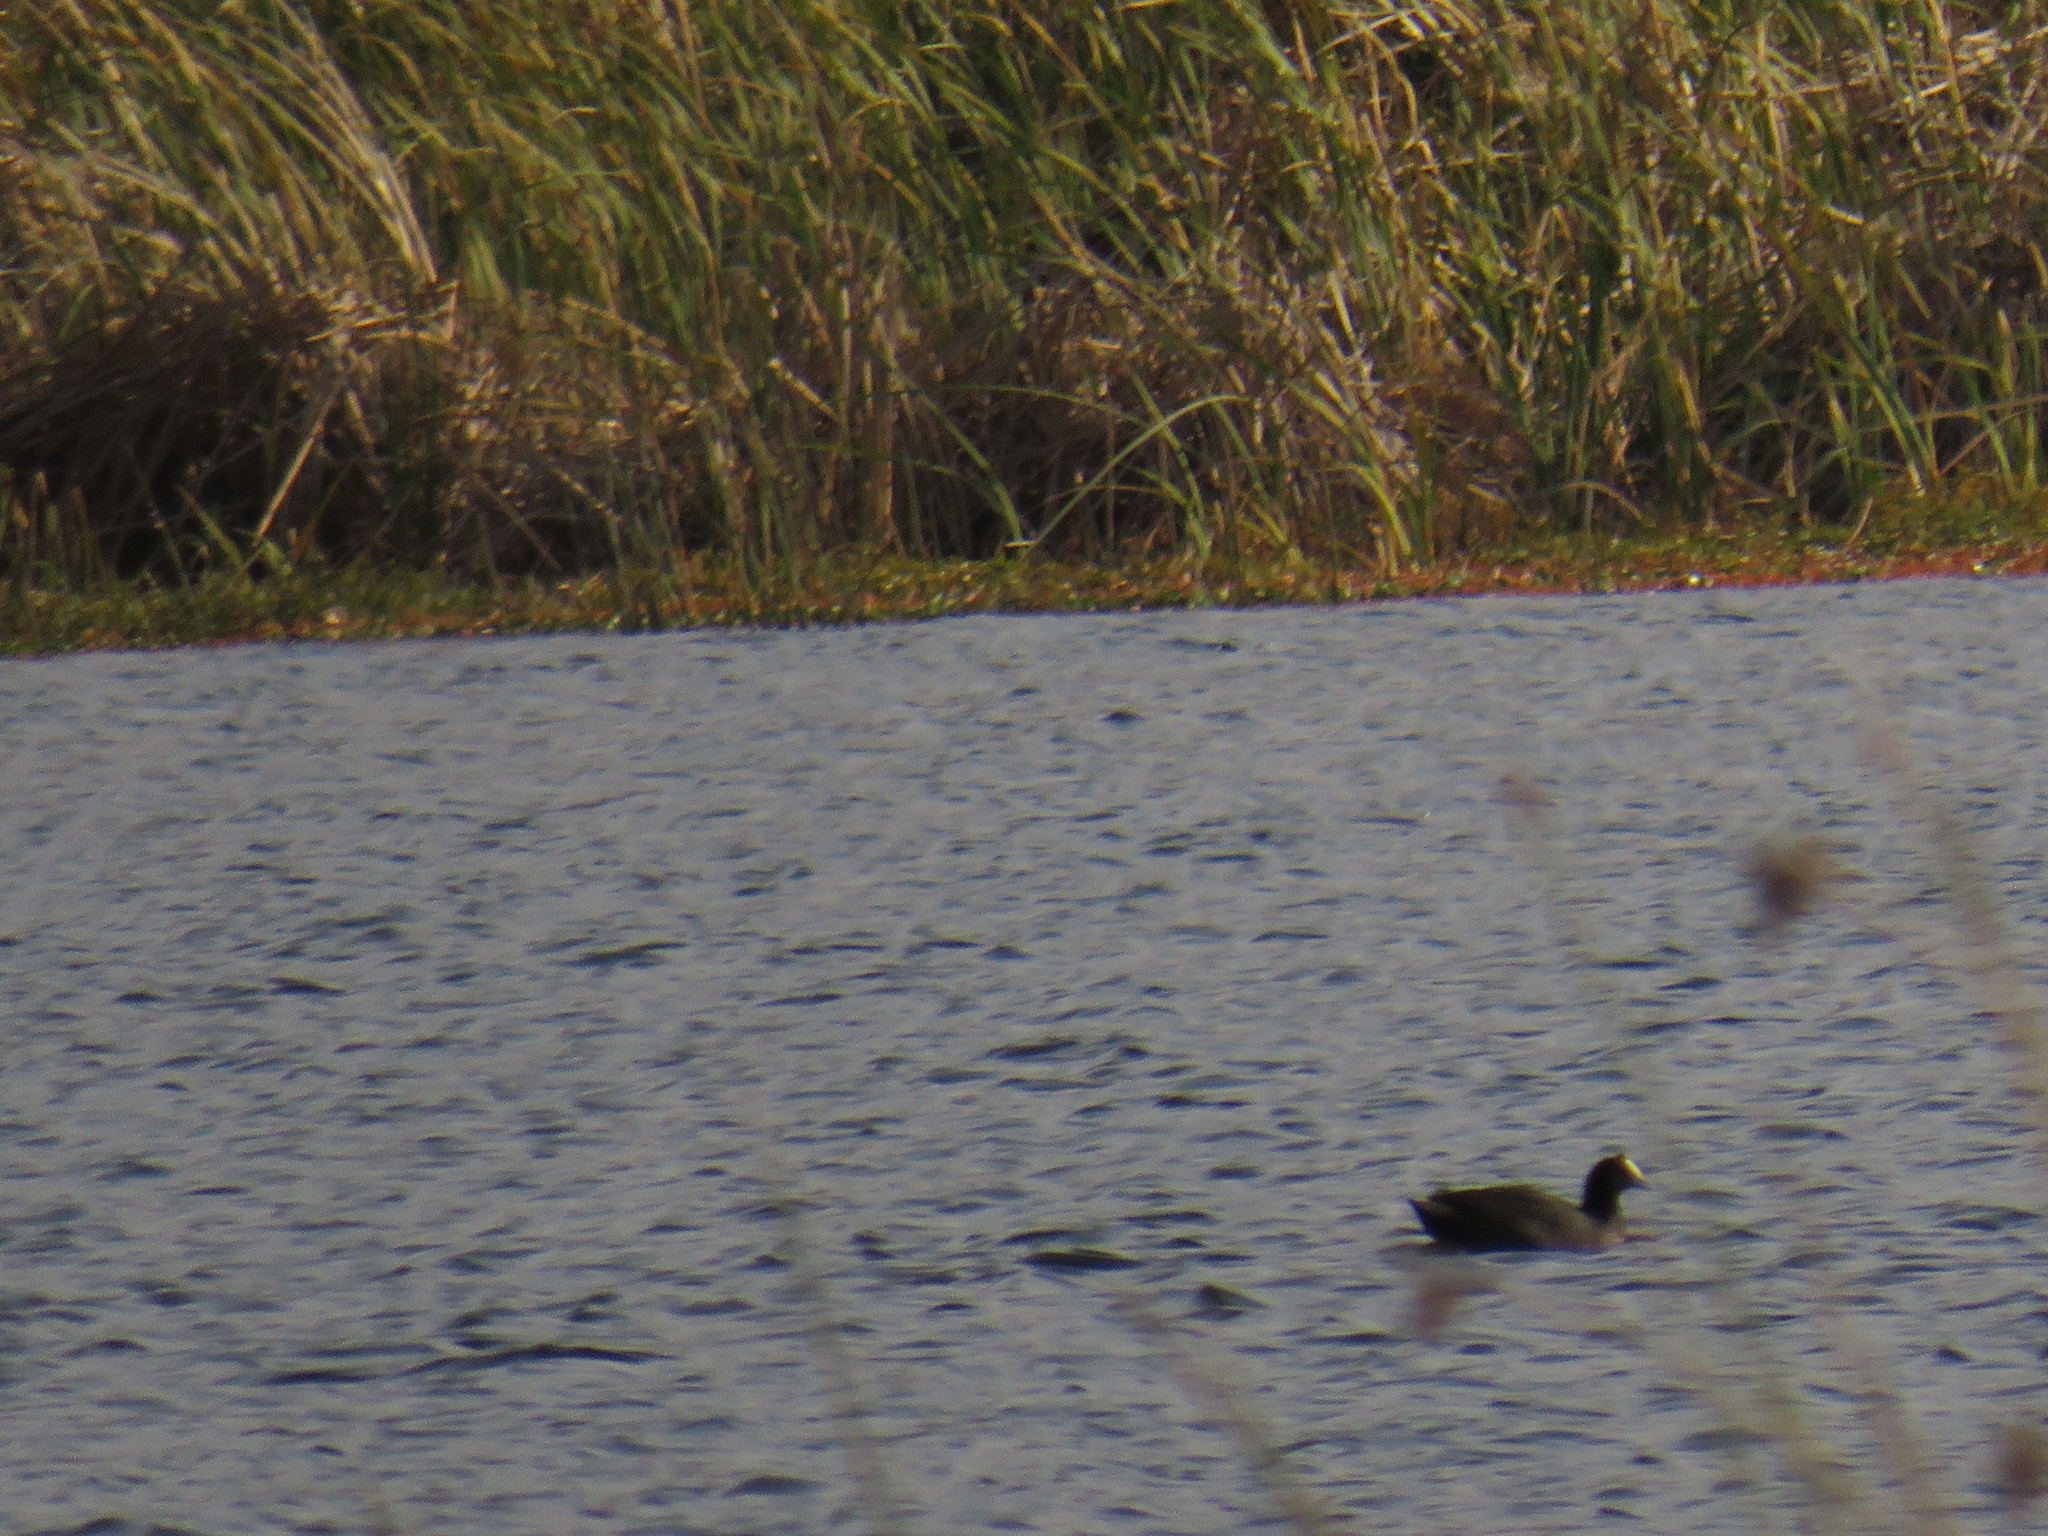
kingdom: Animalia
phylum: Chordata
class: Aves
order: Gruiformes
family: Rallidae
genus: Fulica
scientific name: Fulica cristata
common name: Red-knobbed coot
